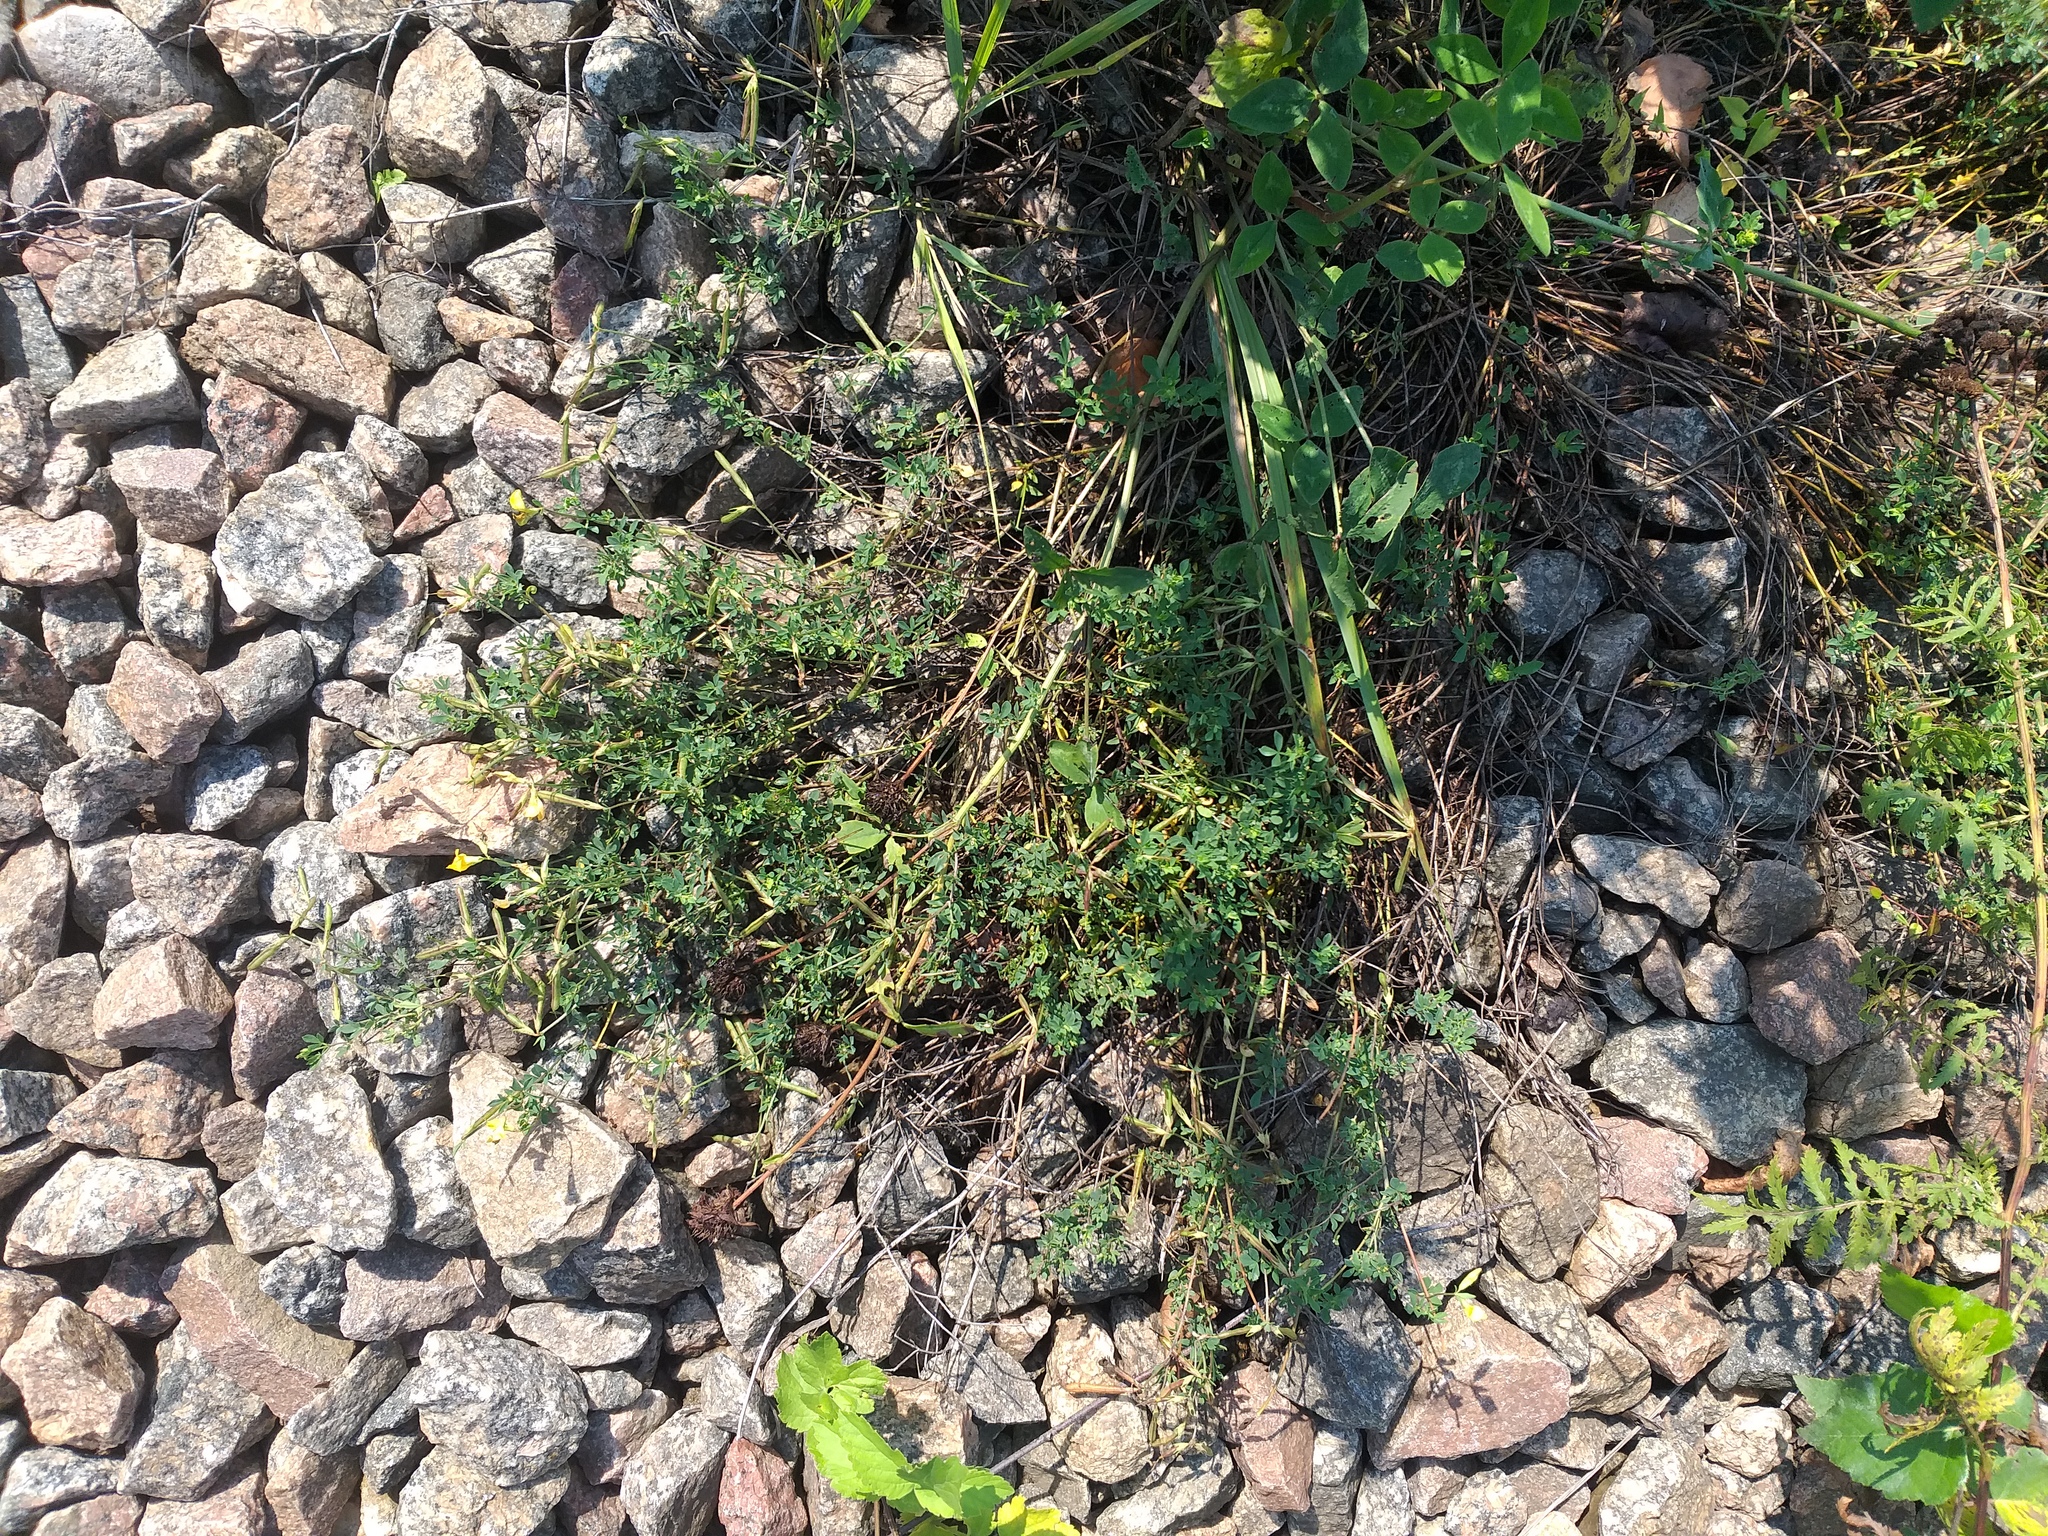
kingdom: Plantae
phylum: Tracheophyta
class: Magnoliopsida
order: Fabales
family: Fabaceae
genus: Lotus
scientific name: Lotus corniculatus
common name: Common bird's-foot-trefoil
